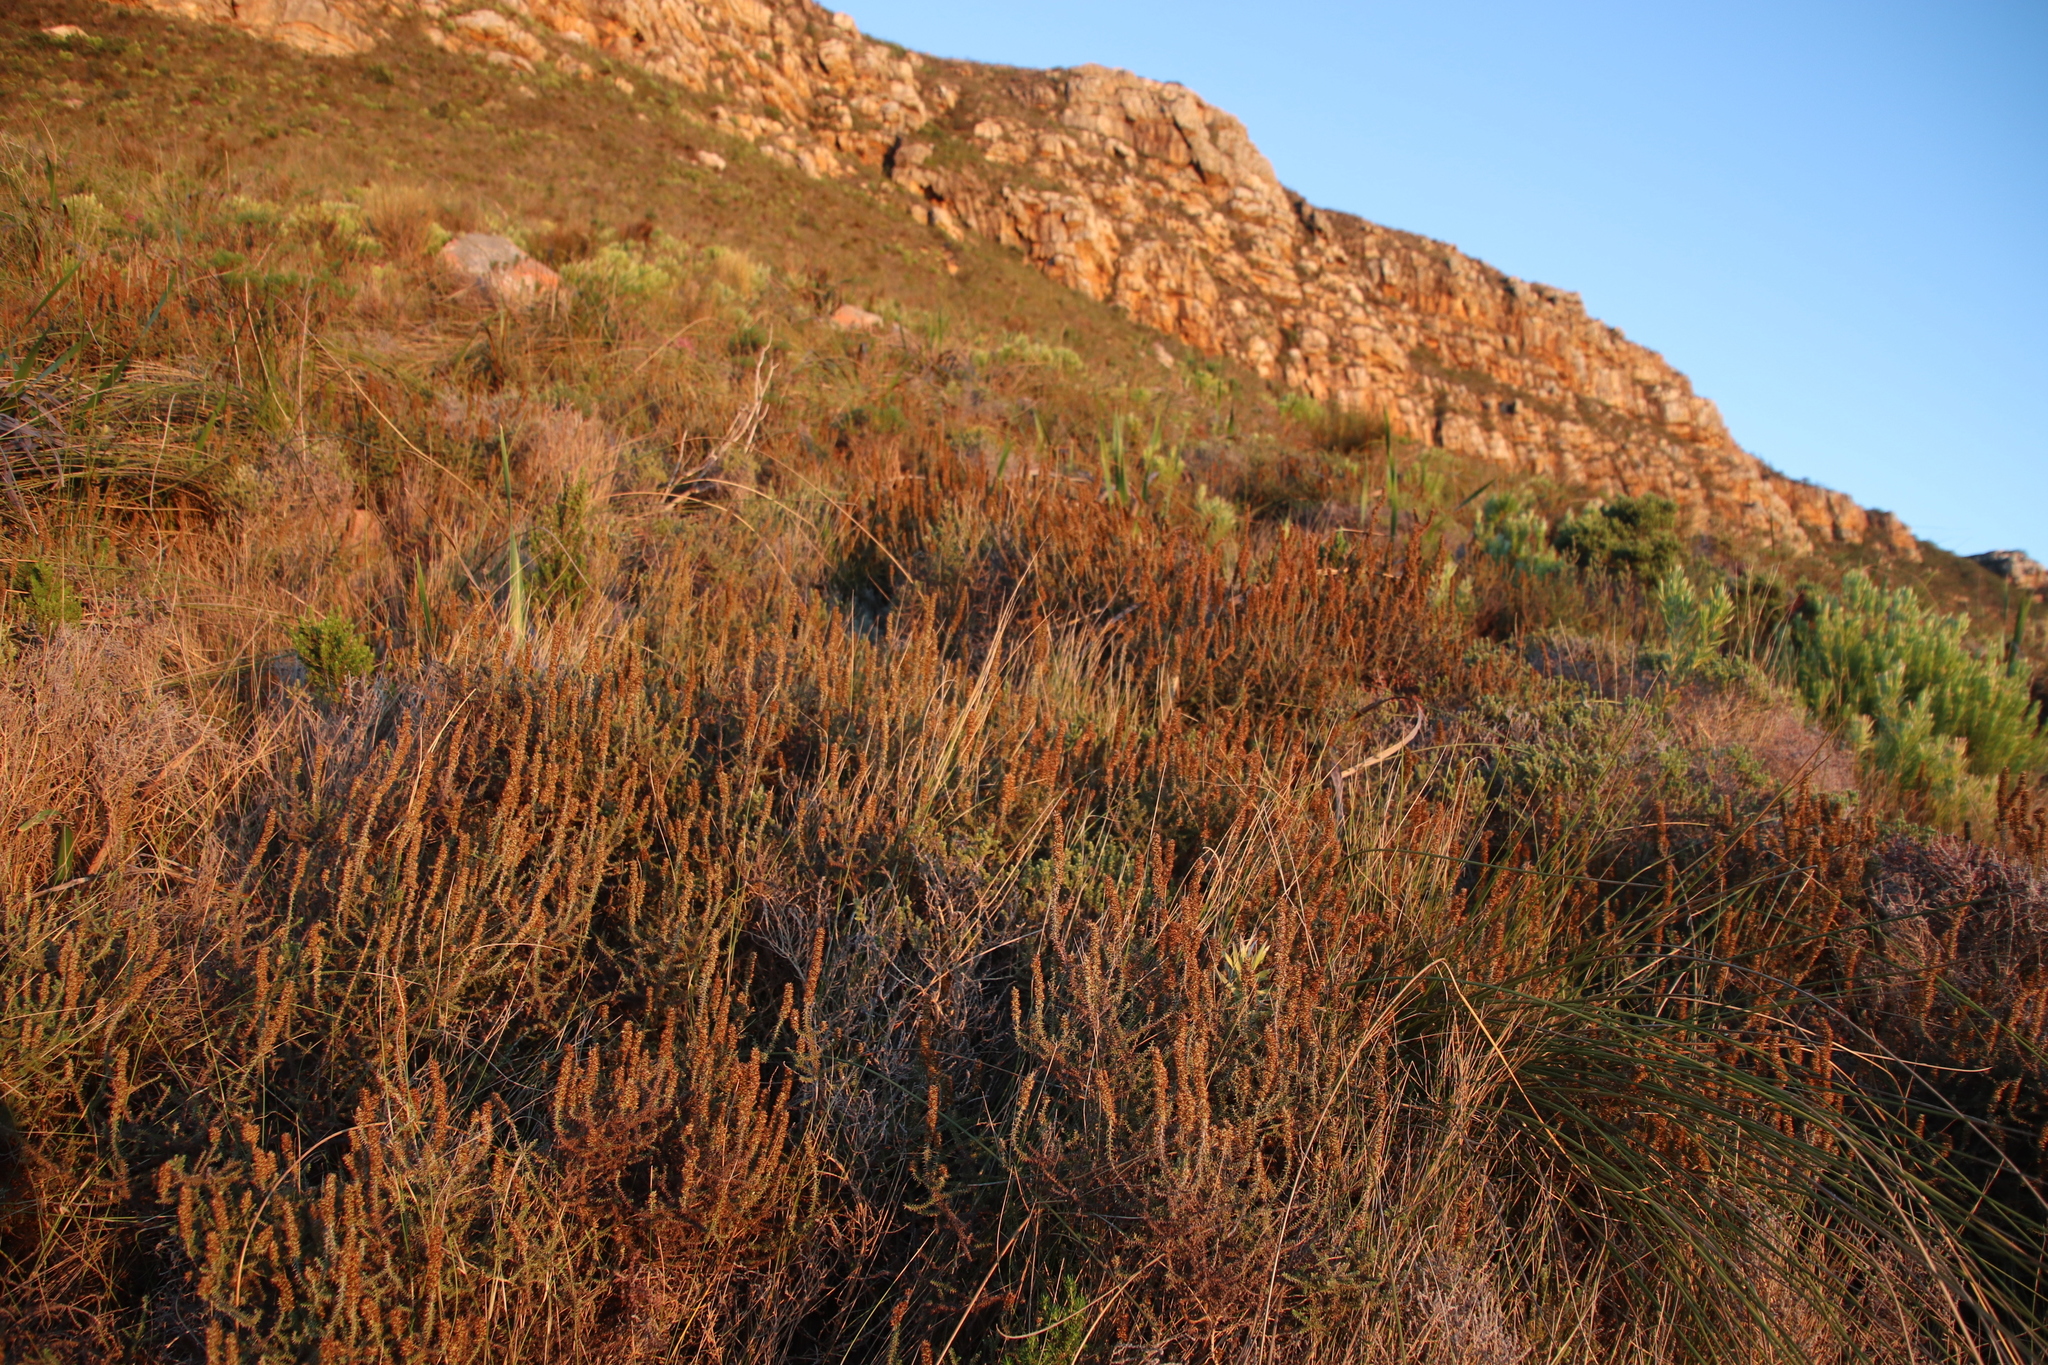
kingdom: Plantae
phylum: Tracheophyta
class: Magnoliopsida
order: Asterales
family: Asteraceae
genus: Seriphium
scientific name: Seriphium cinereum
